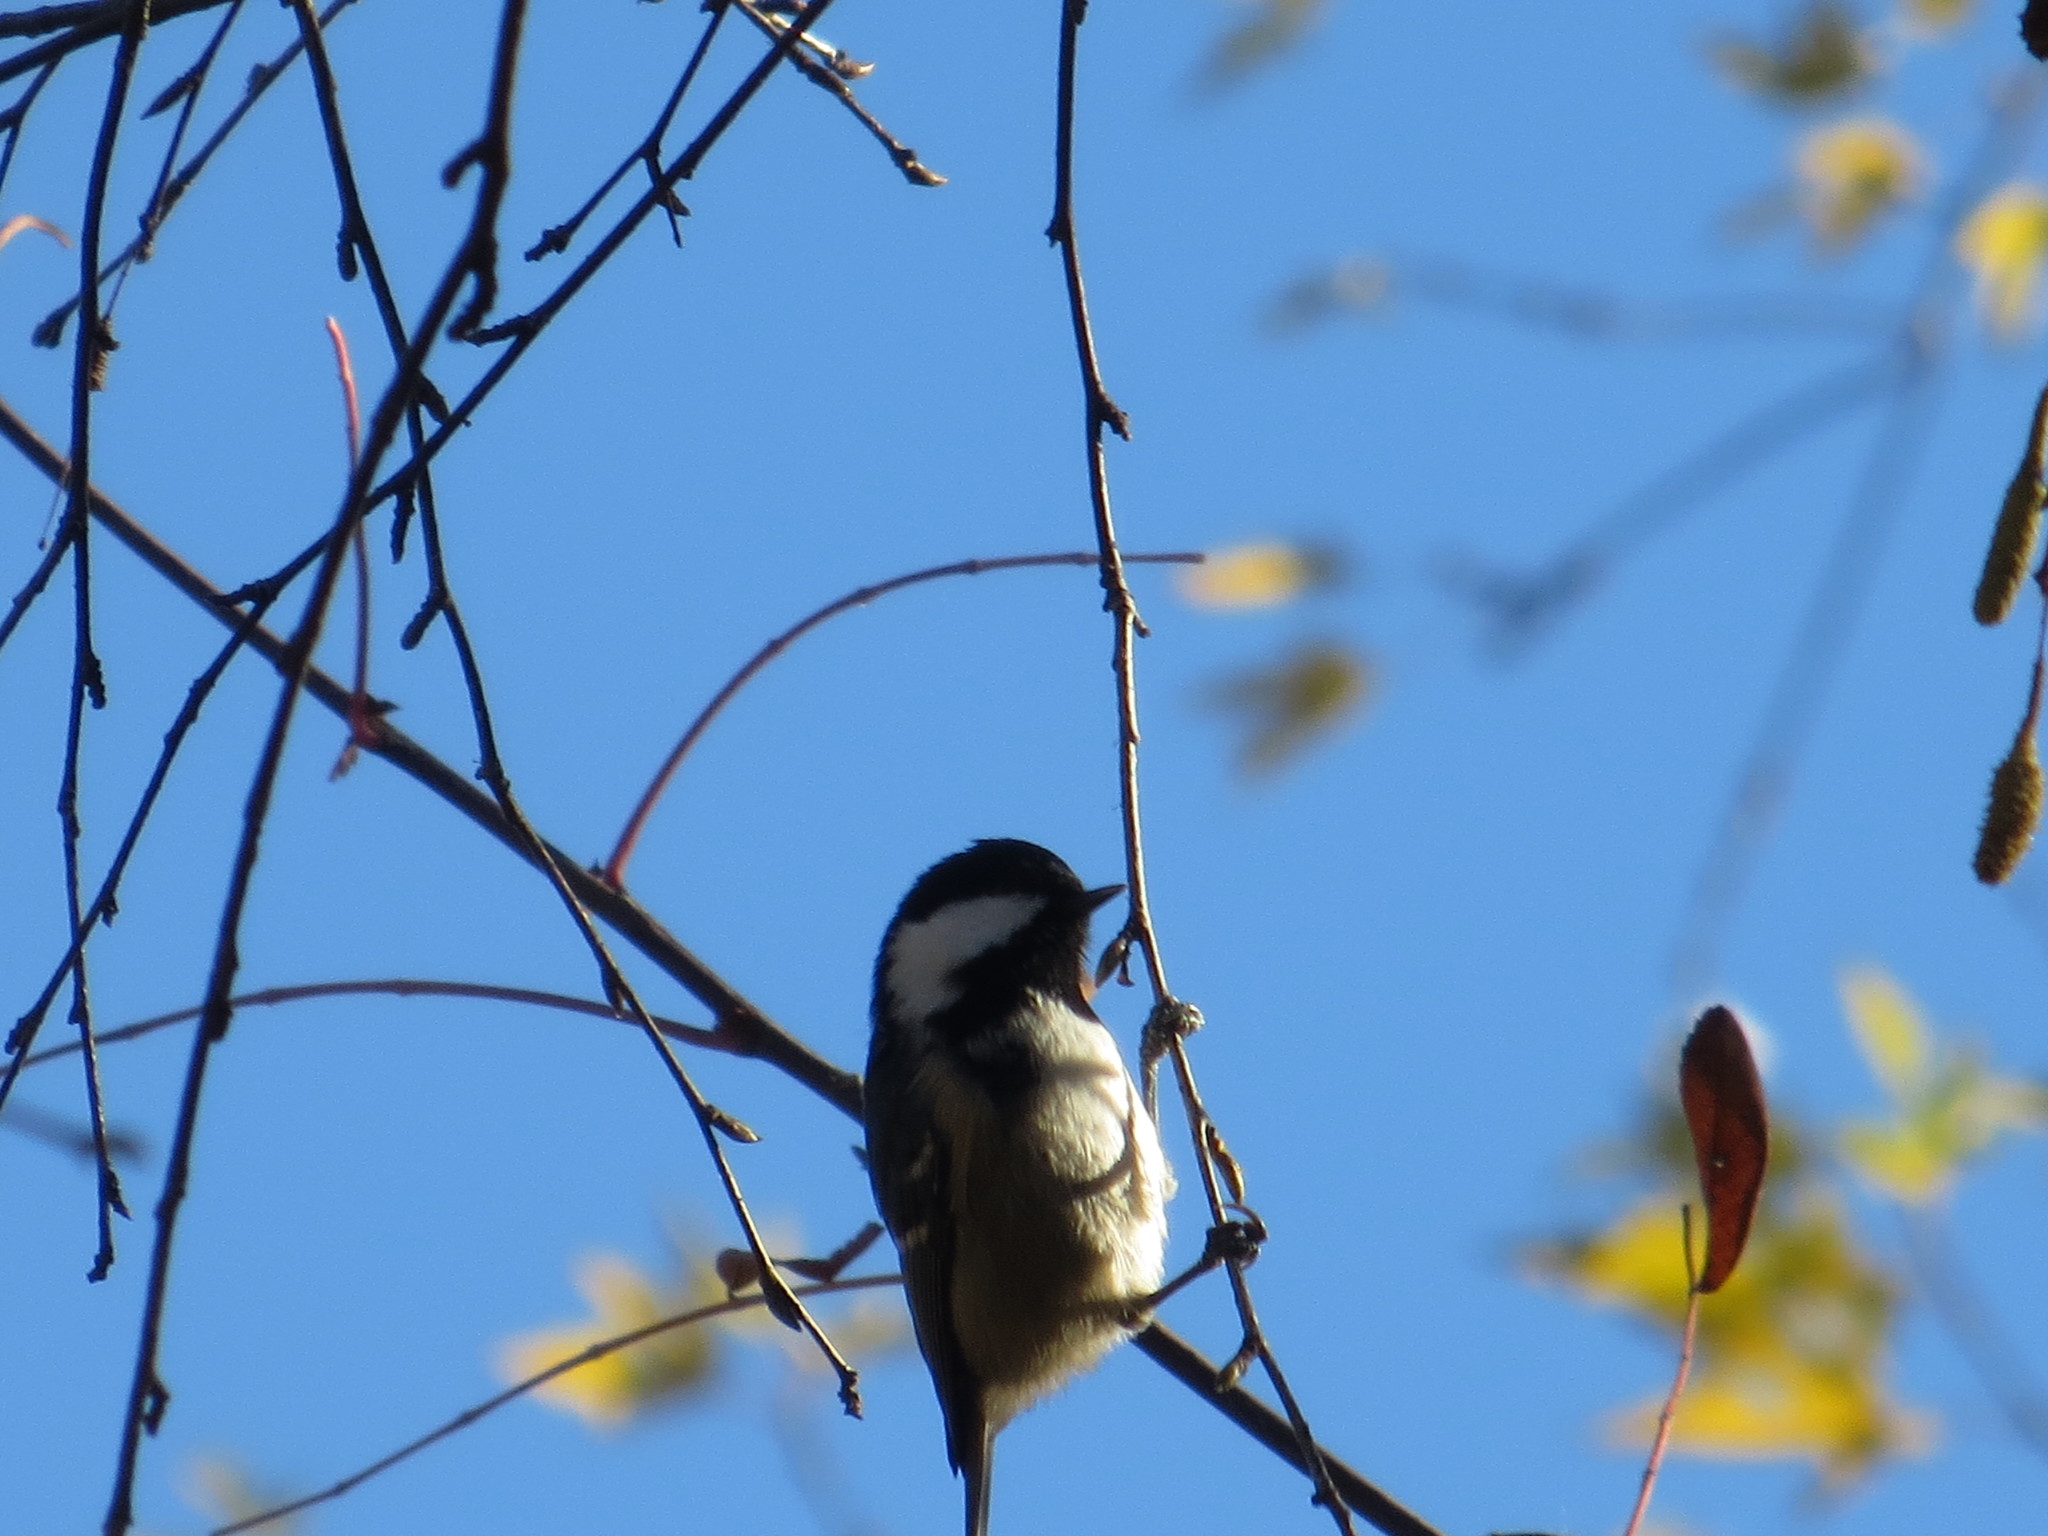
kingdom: Animalia
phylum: Chordata
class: Aves
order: Passeriformes
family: Paridae
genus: Periparus
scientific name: Periparus ater
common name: Coal tit
